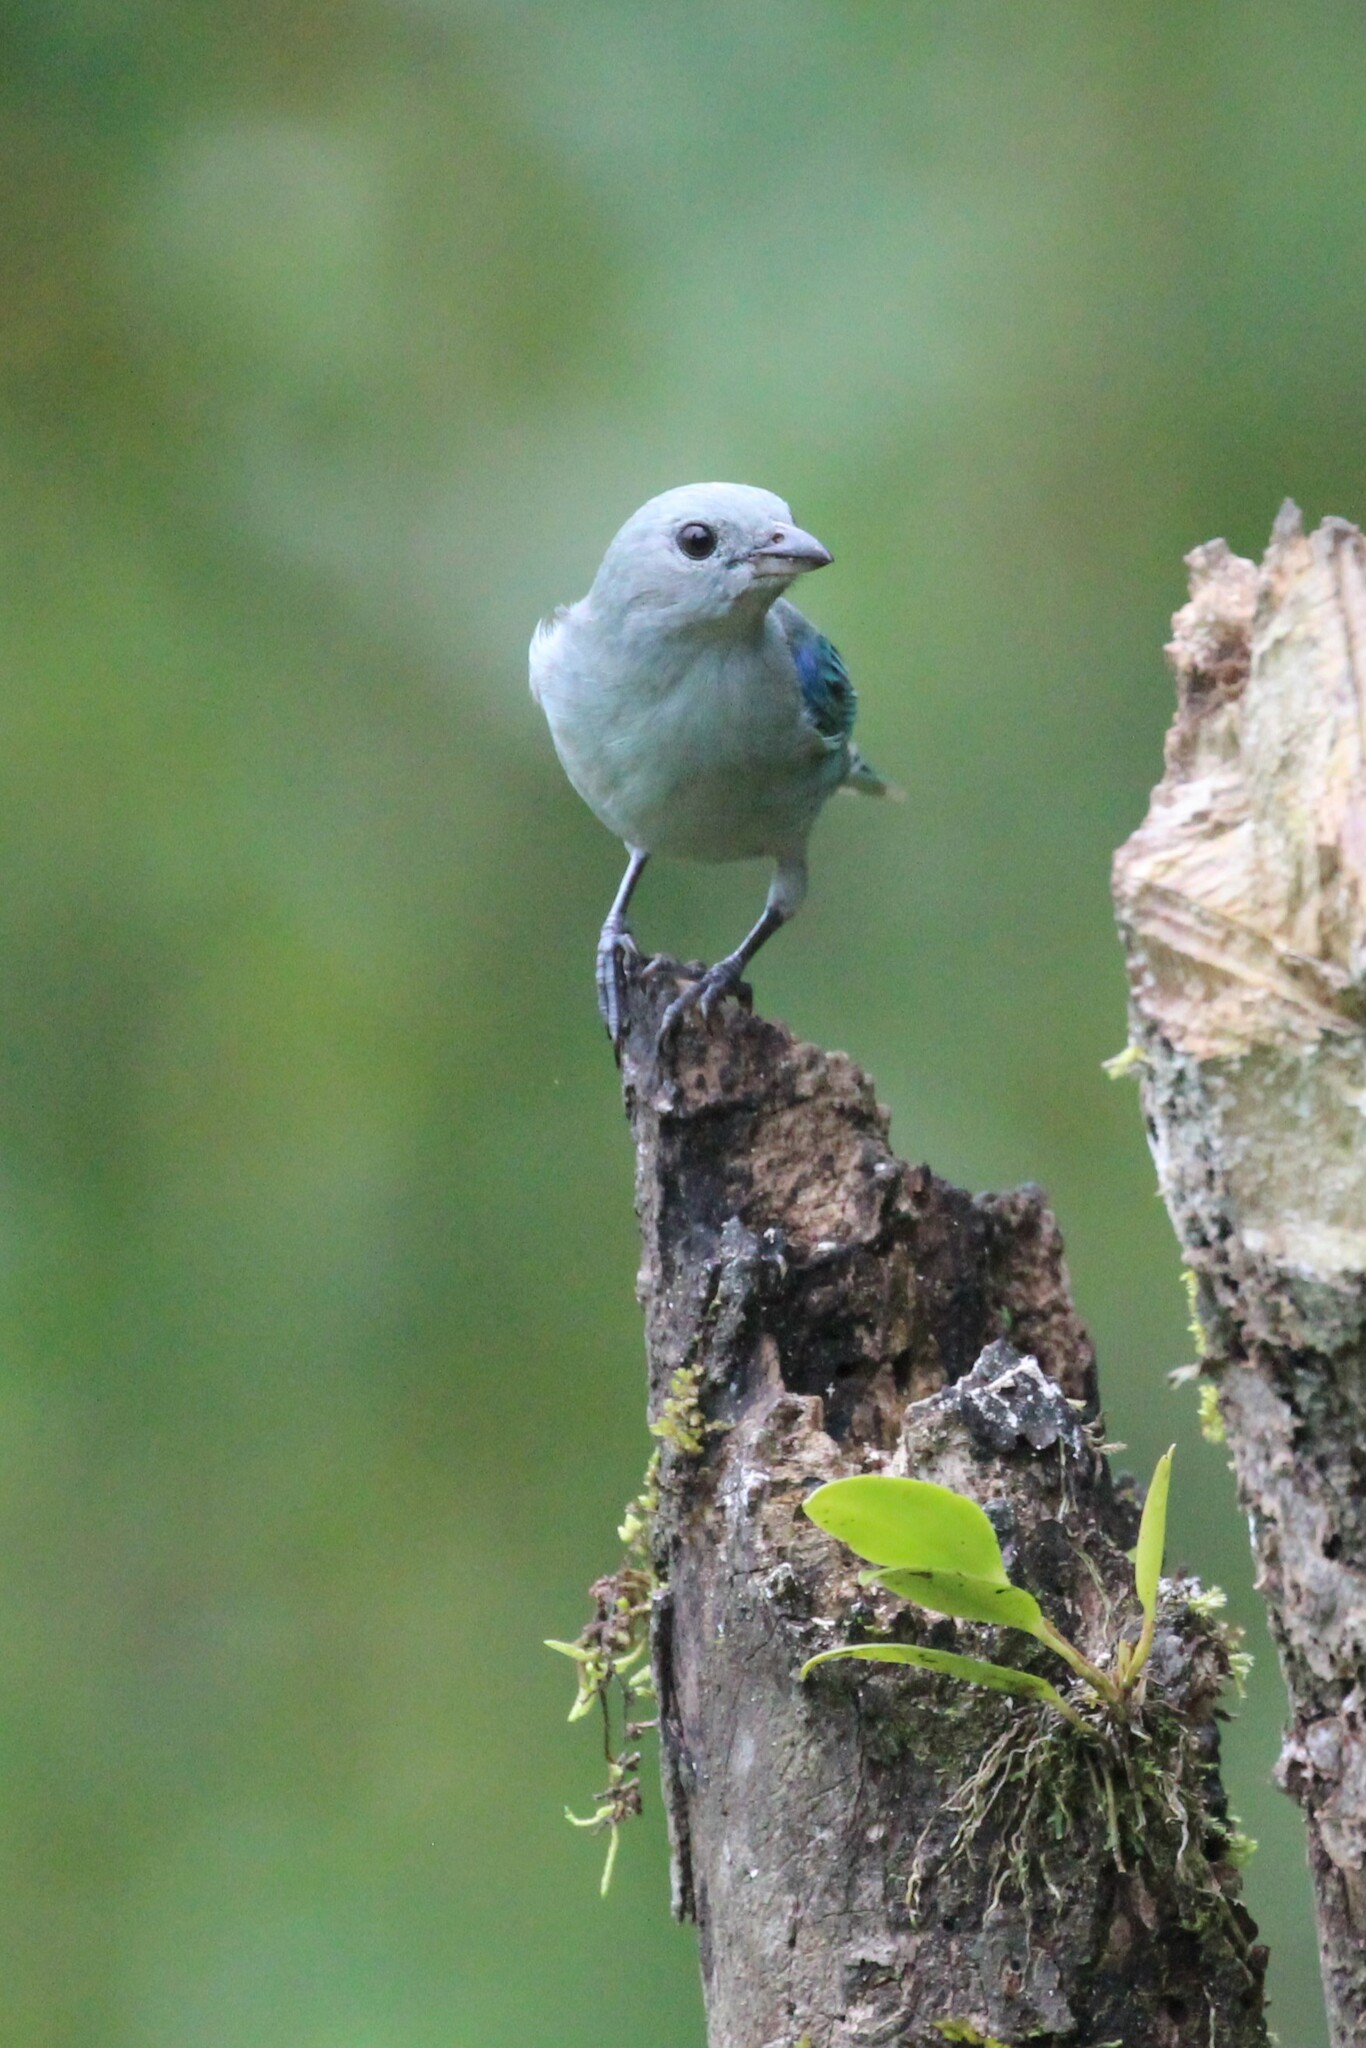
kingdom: Animalia
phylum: Chordata
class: Aves
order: Passeriformes
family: Thraupidae
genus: Thraupis
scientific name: Thraupis episcopus
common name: Blue-grey tanager
